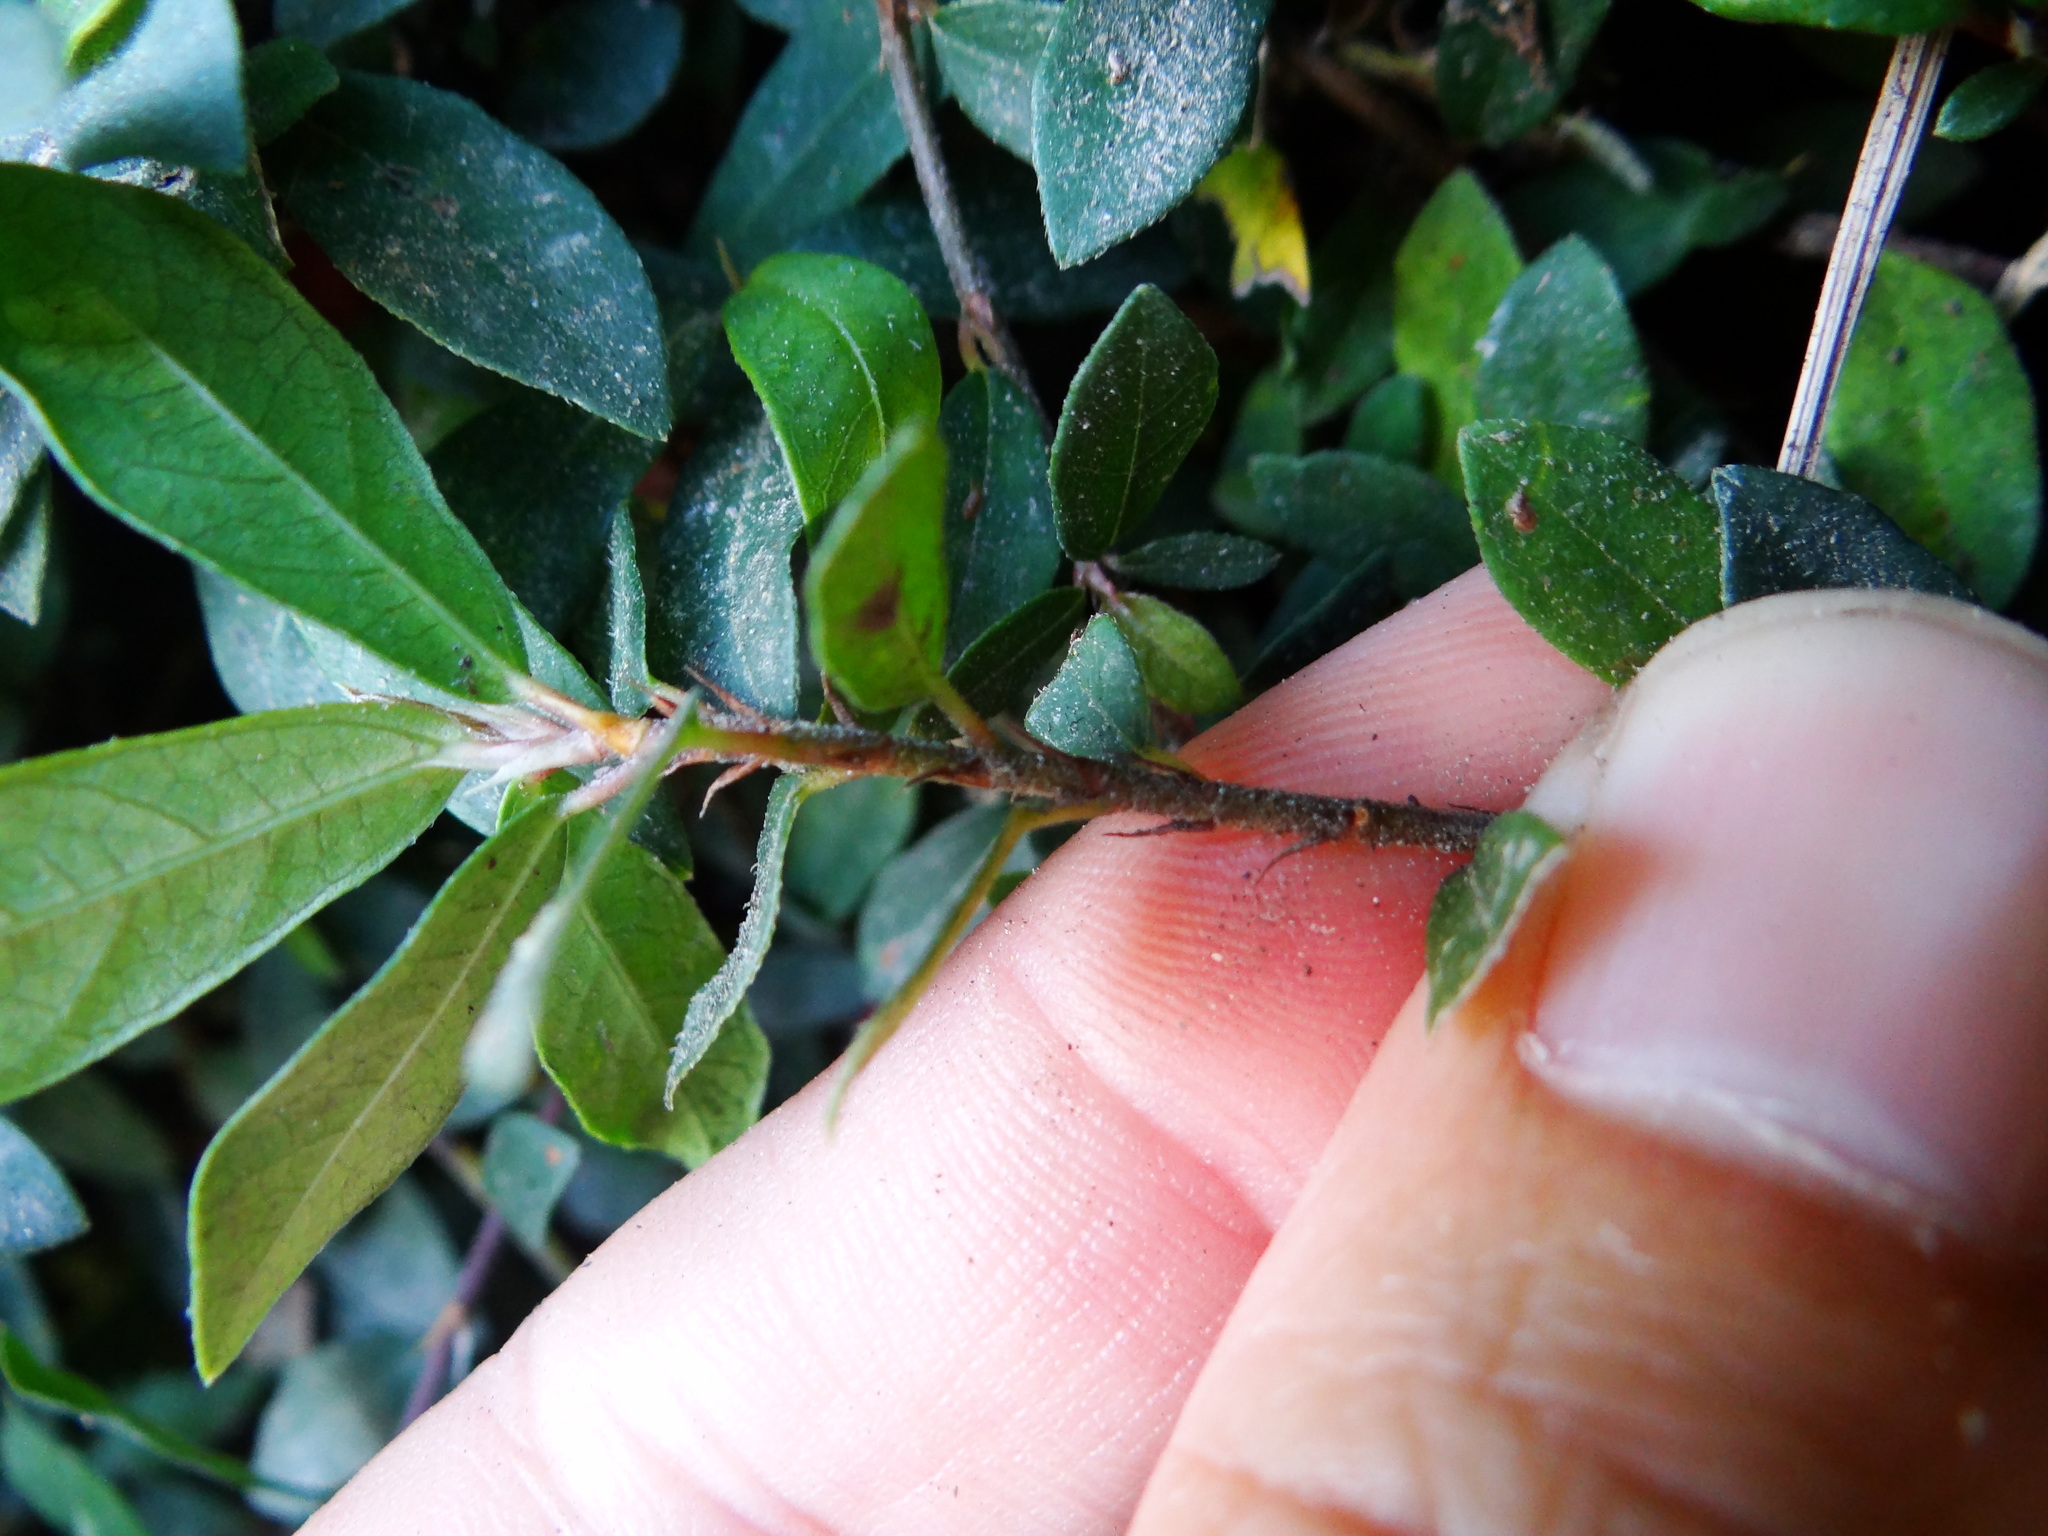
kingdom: Plantae
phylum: Tracheophyta
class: Magnoliopsida
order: Rosales
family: Moraceae
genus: Ficus
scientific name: Ficus vaccinioides
